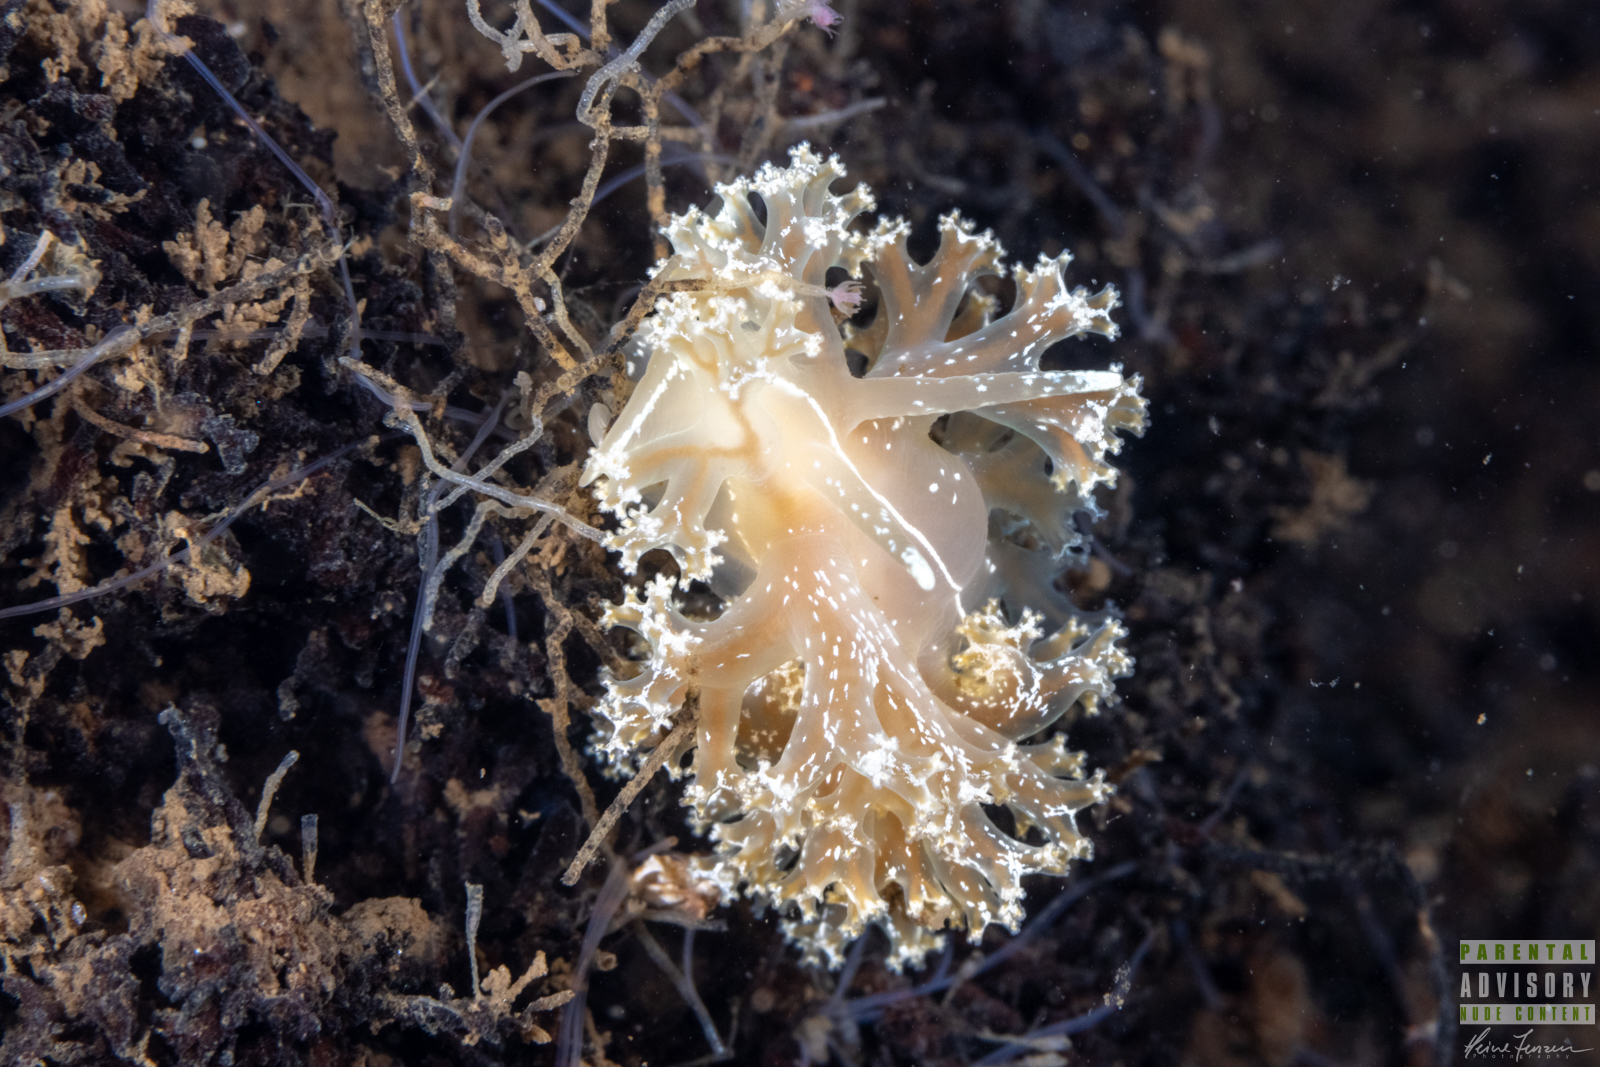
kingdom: Animalia
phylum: Mollusca
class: Gastropoda
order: Nudibranchia
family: Heroidae
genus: Hero
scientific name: Hero formosa
